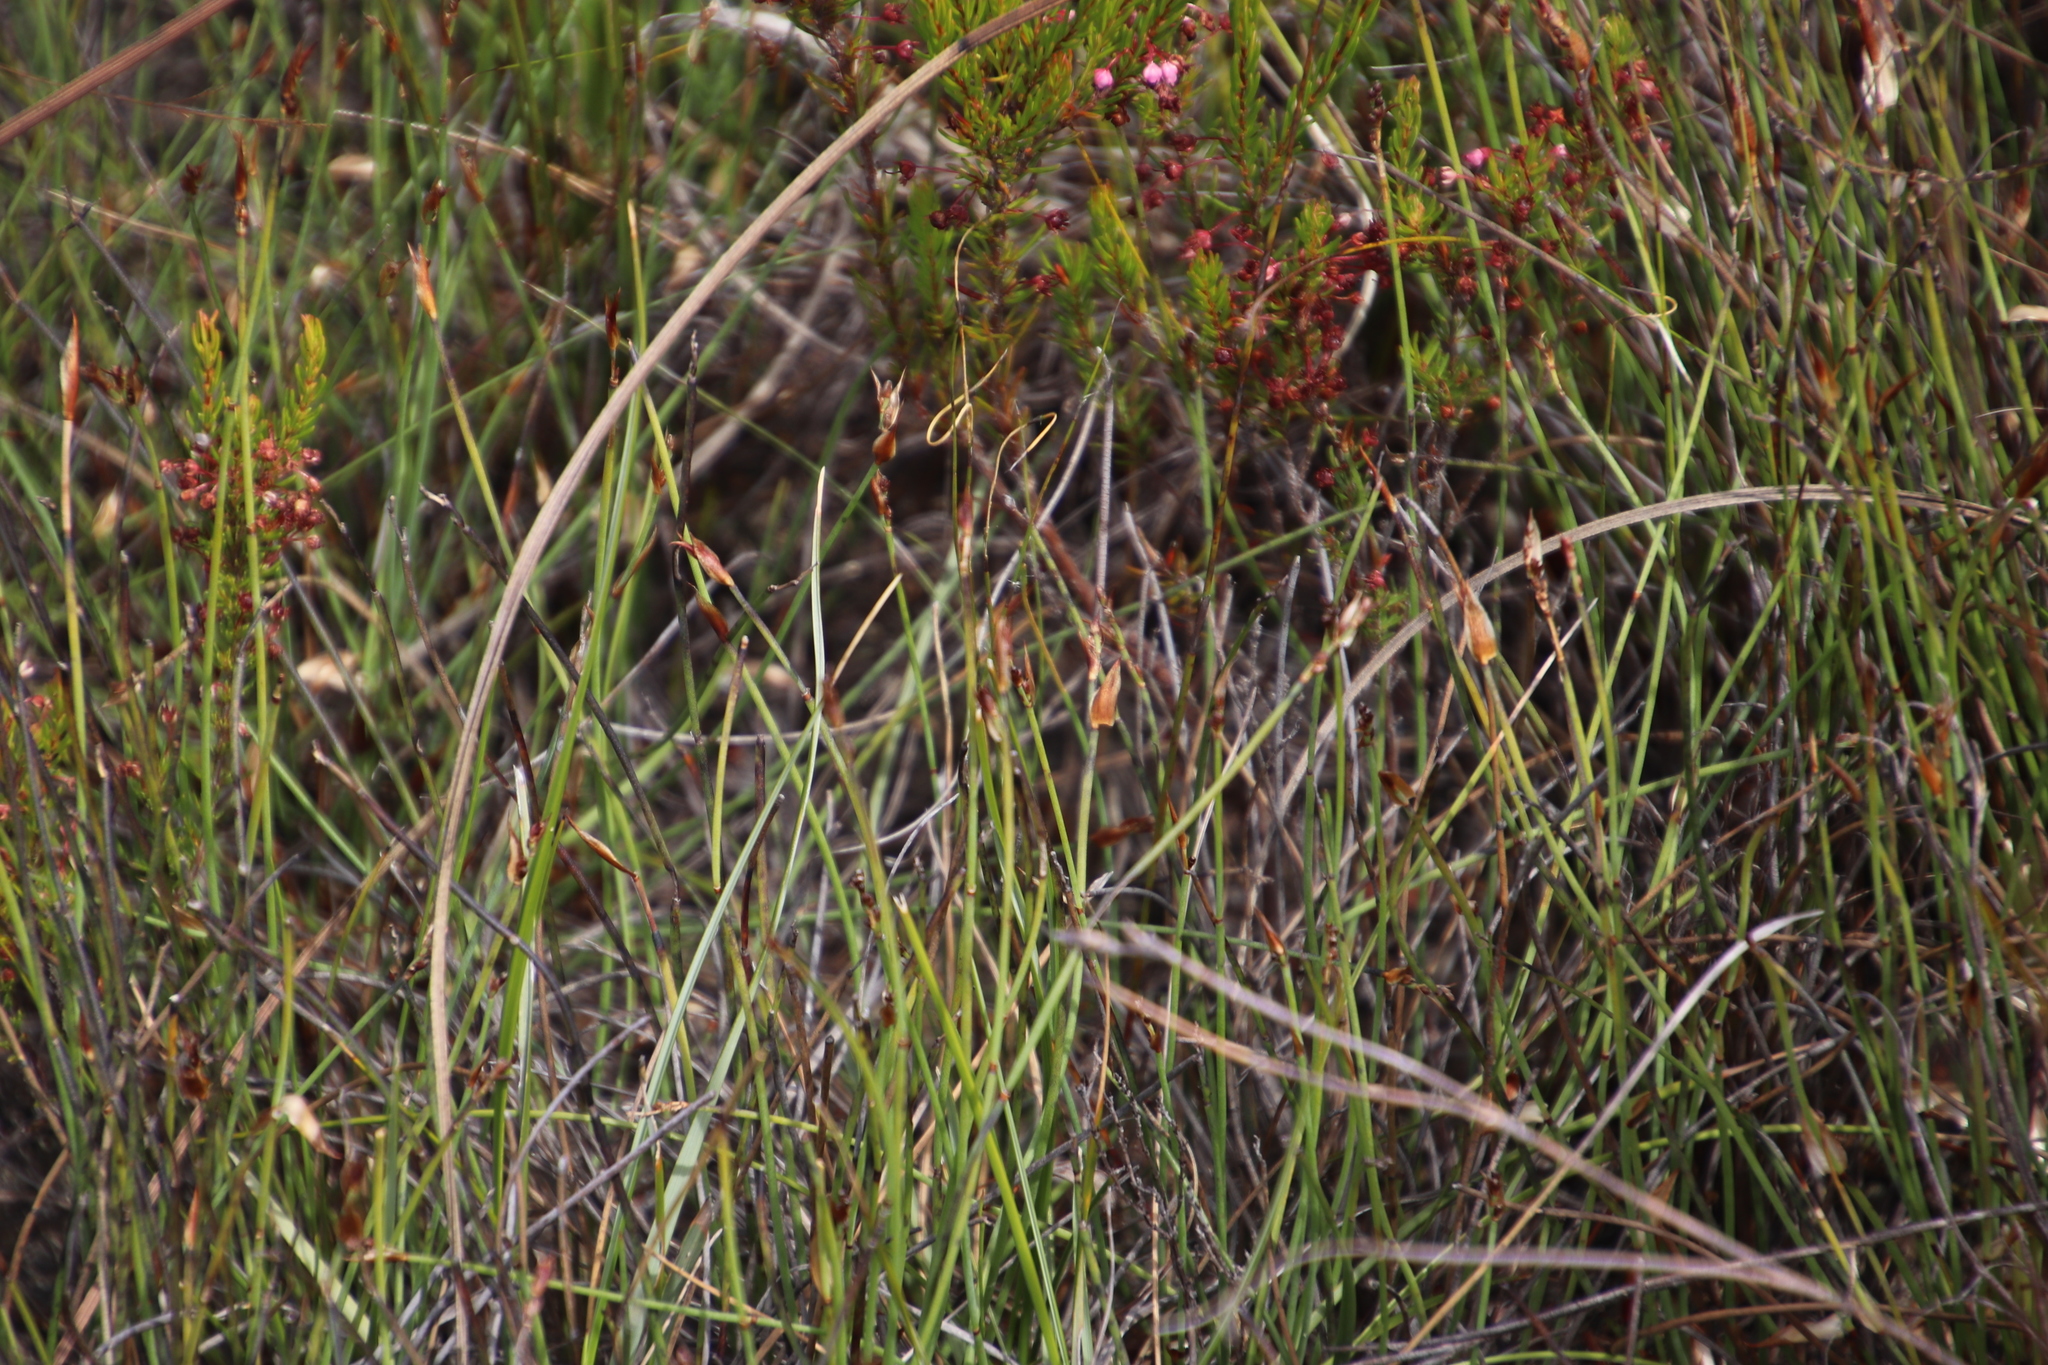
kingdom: Plantae
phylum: Tracheophyta
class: Liliopsida
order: Poales
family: Restionaceae
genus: Elegia
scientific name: Elegia squamosa
